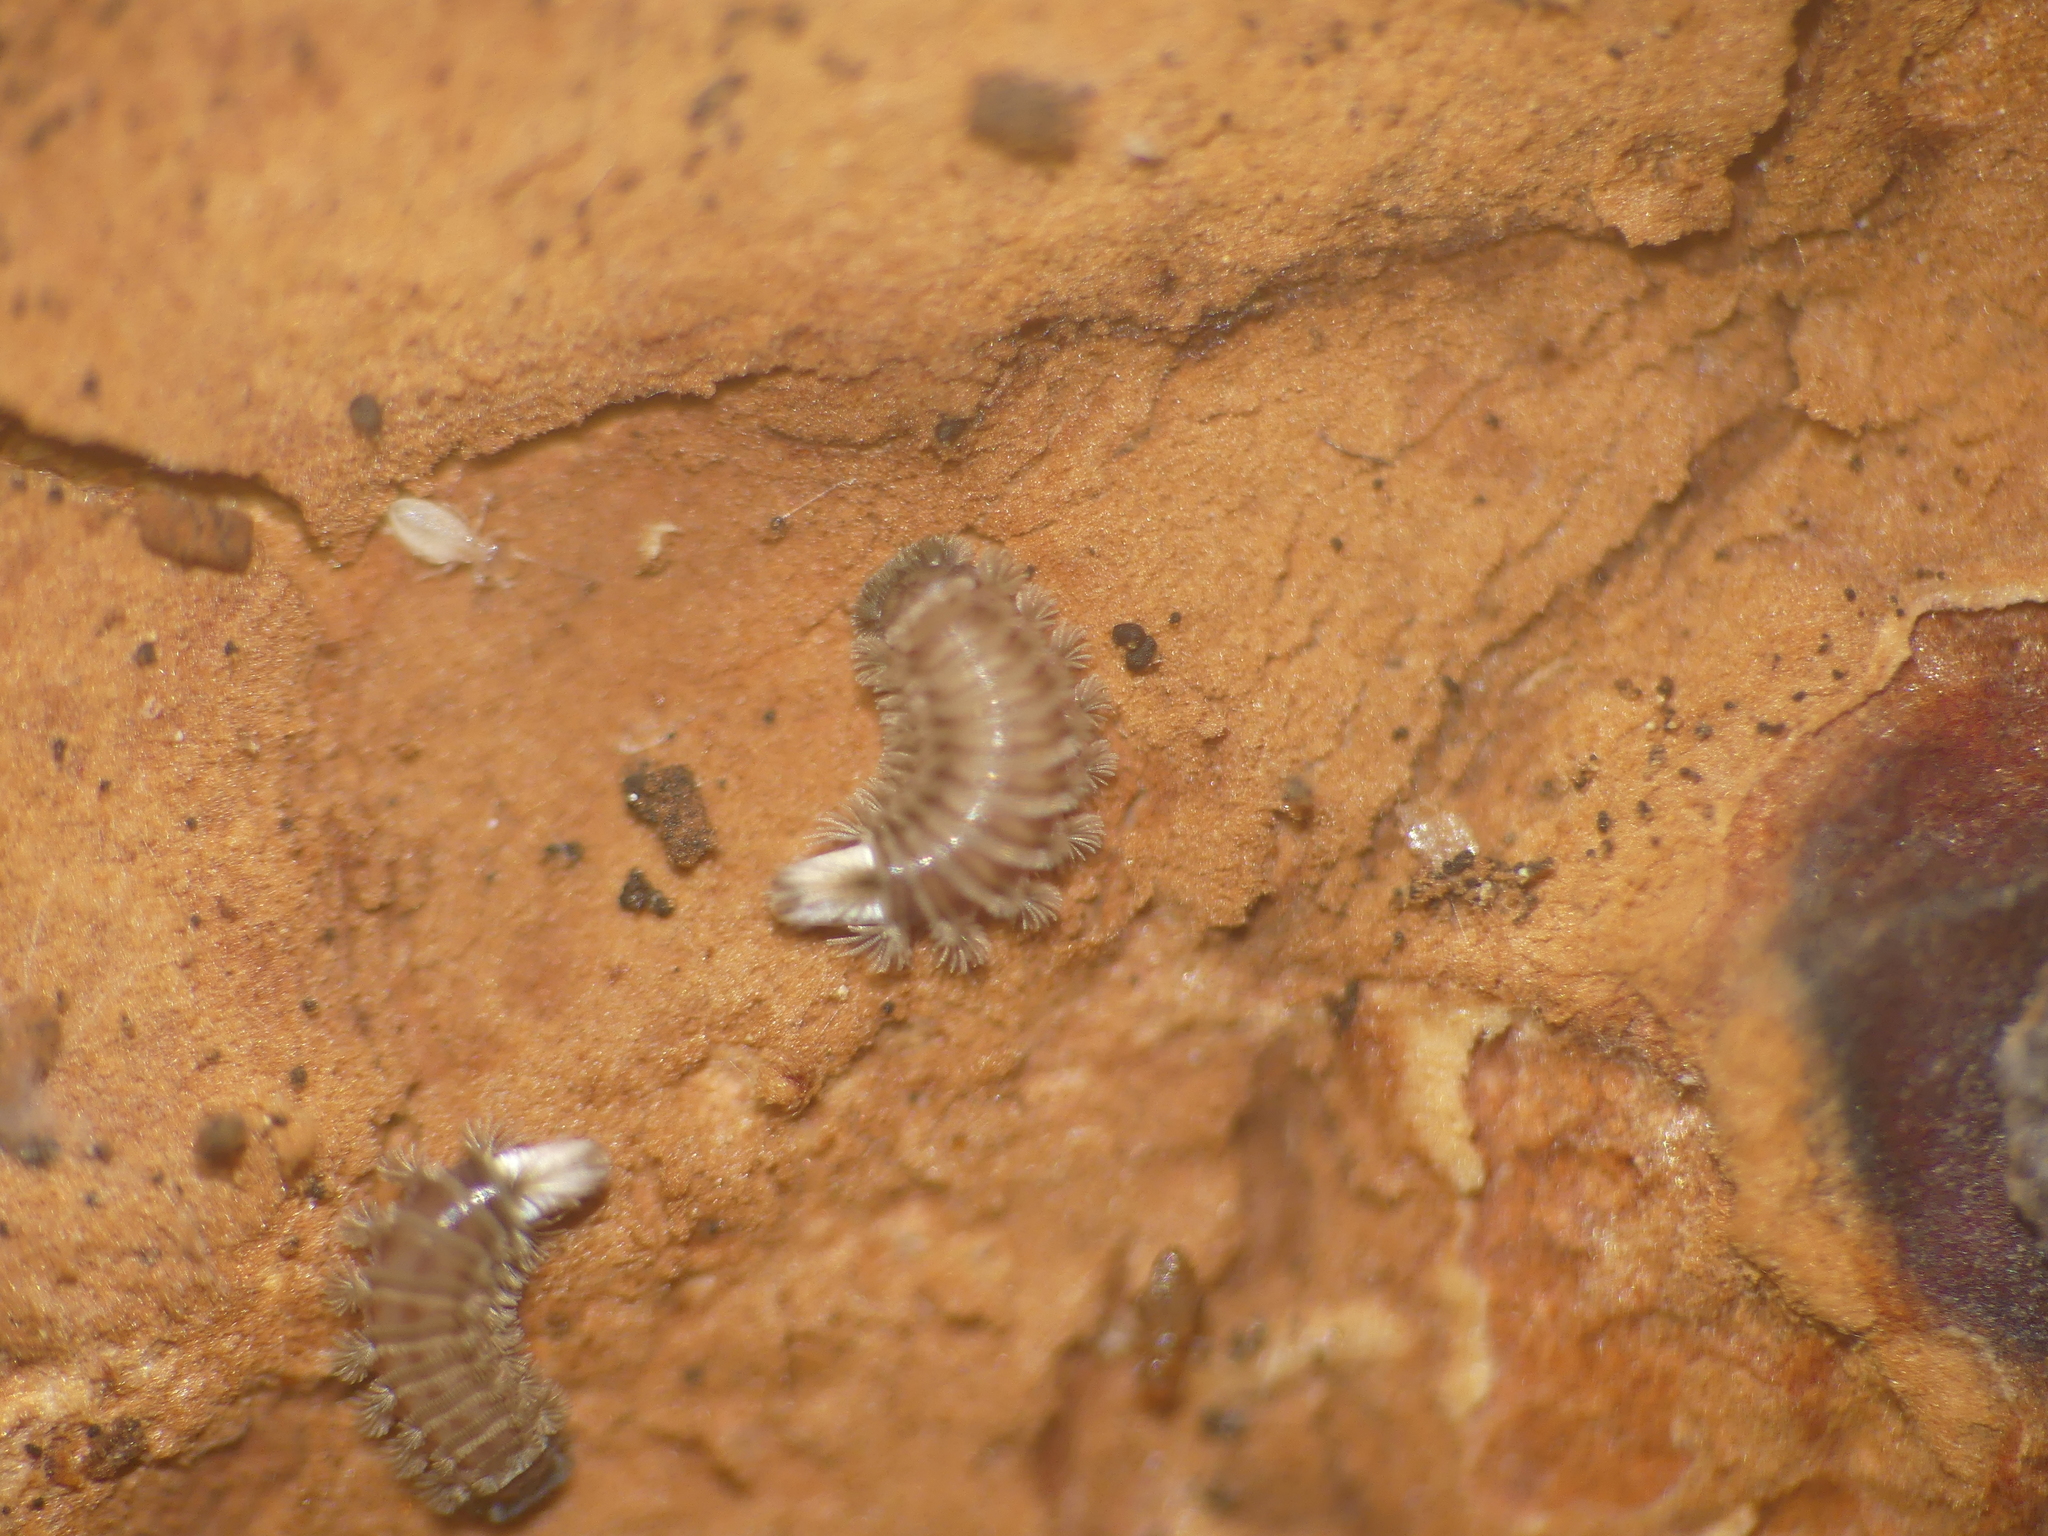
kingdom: Animalia
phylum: Arthropoda
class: Diplopoda
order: Polyxenida
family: Polyxenidae
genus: Polyxenus
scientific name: Polyxenus lagurus
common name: Bristly millipede
